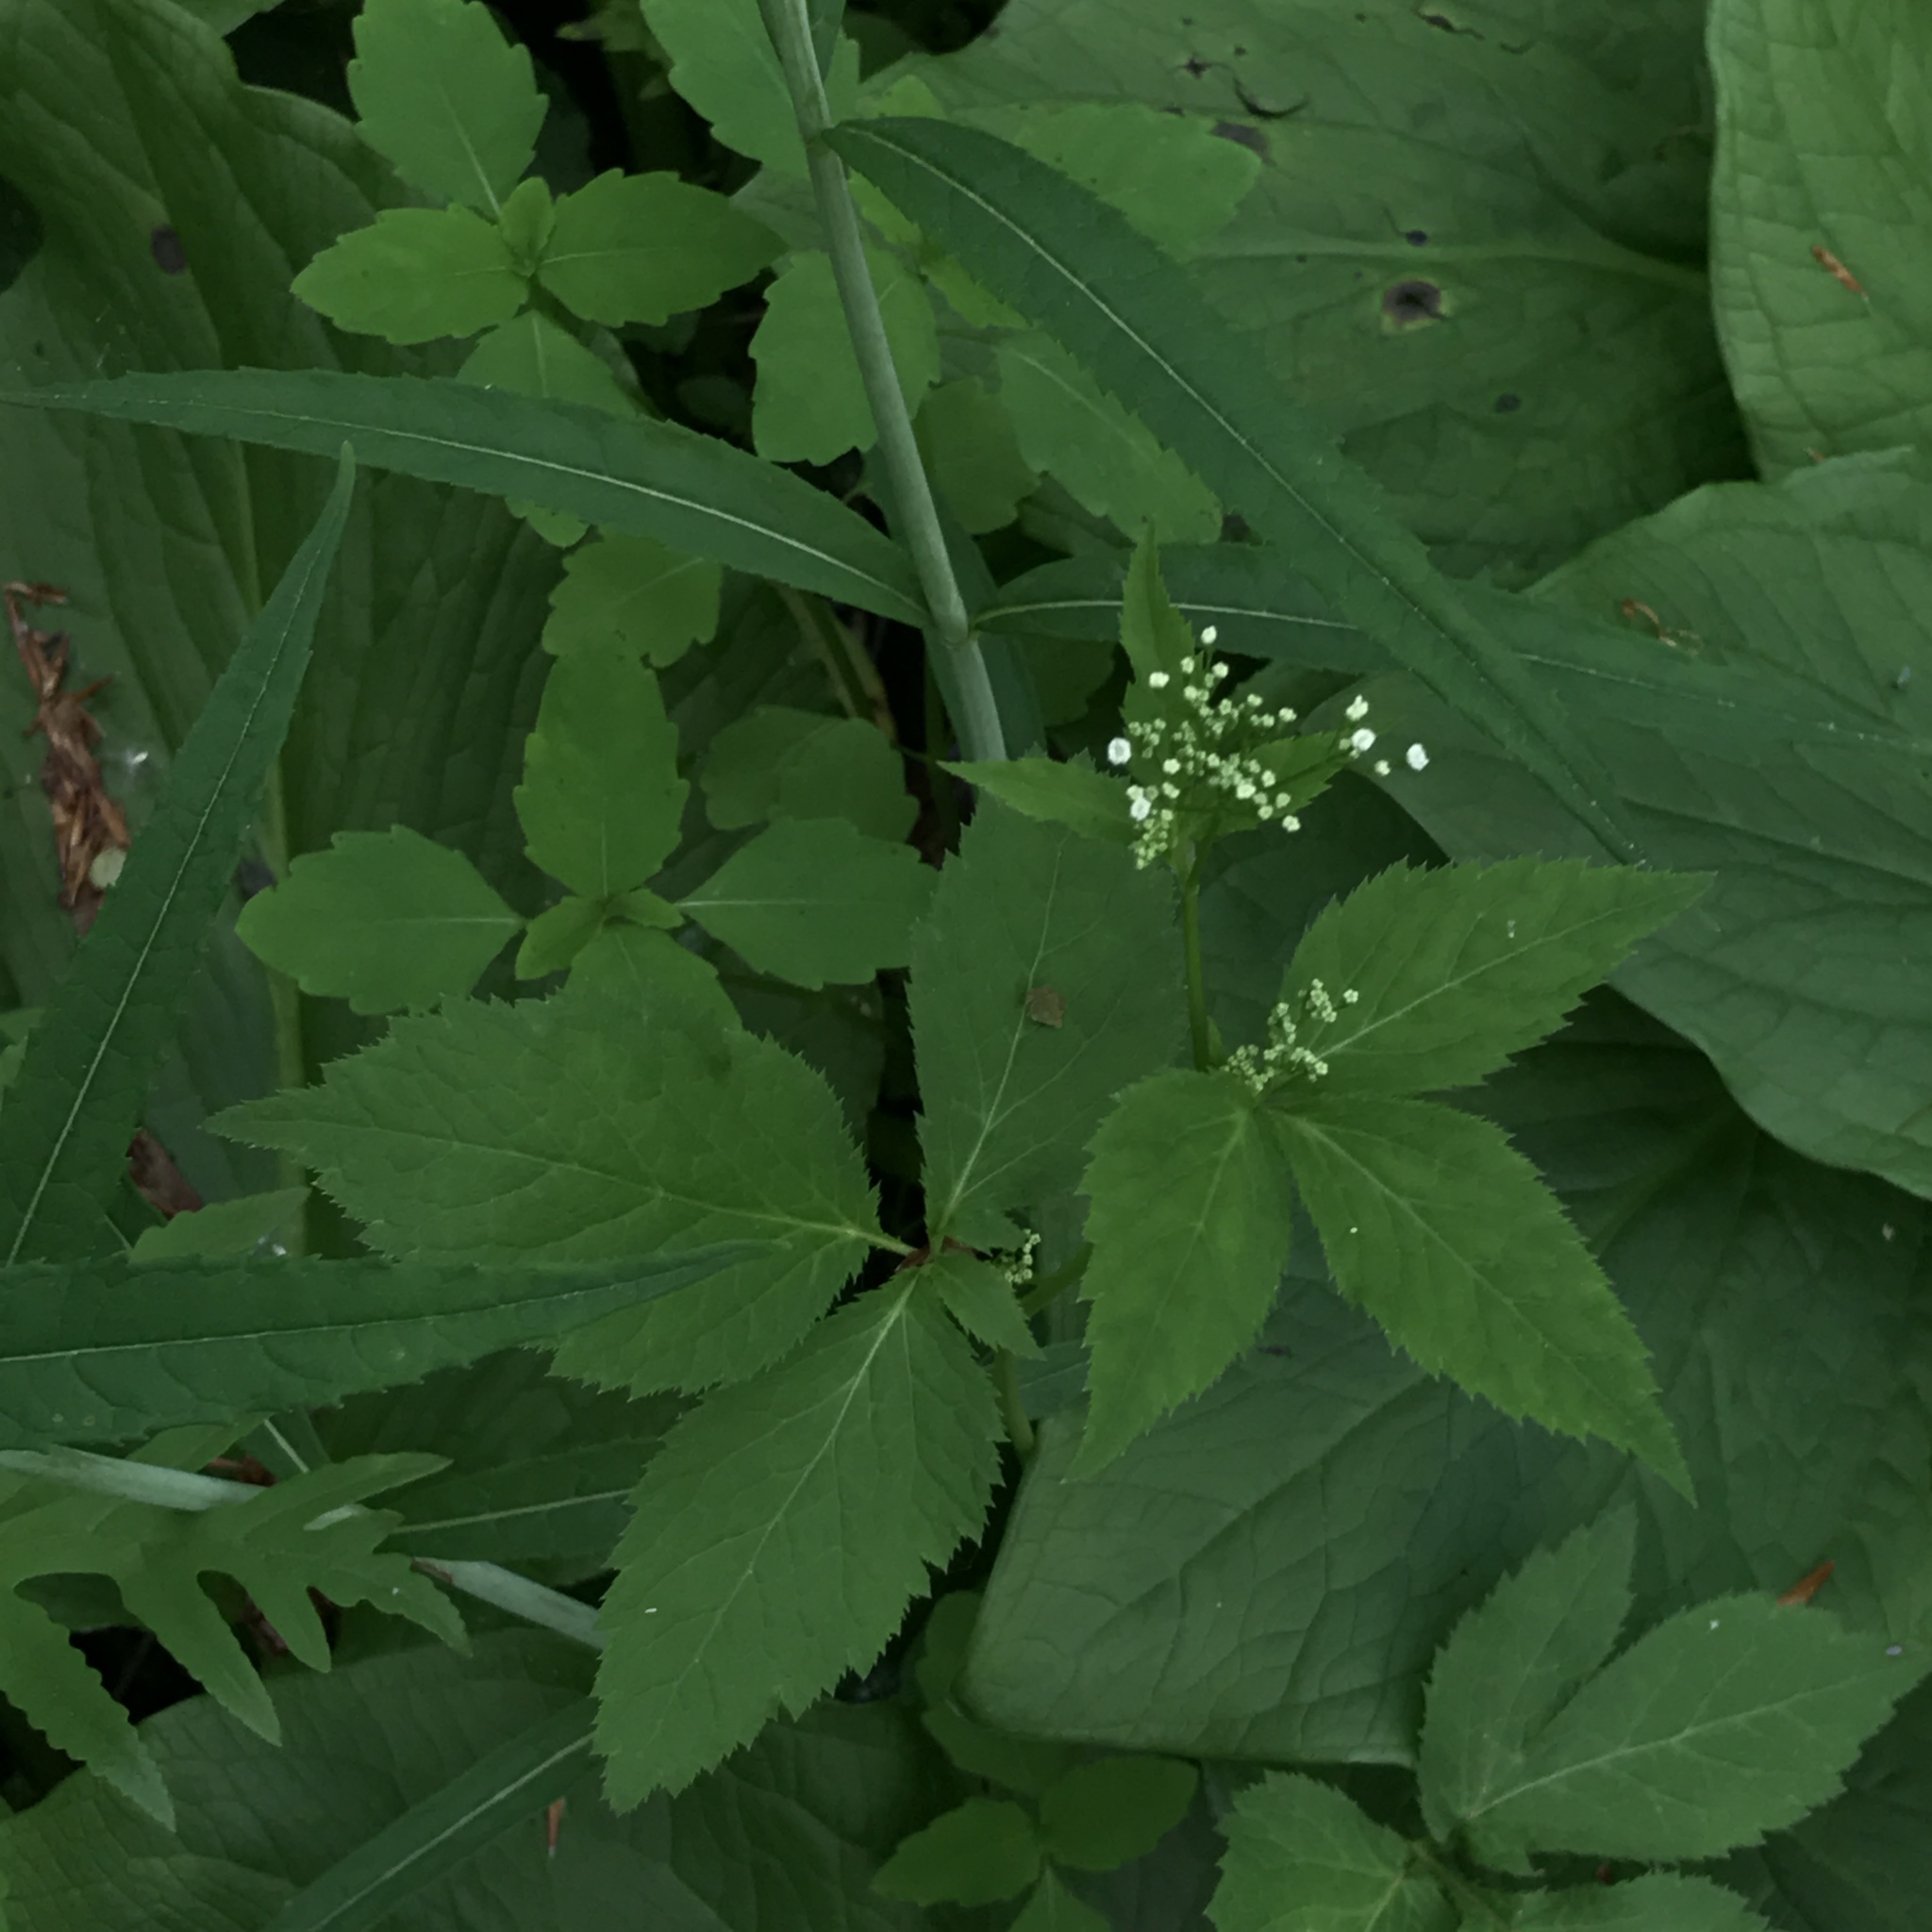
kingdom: Plantae
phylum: Tracheophyta
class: Magnoliopsida
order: Apiales
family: Apiaceae
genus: Cryptotaenia
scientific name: Cryptotaenia canadensis
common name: Honewort
